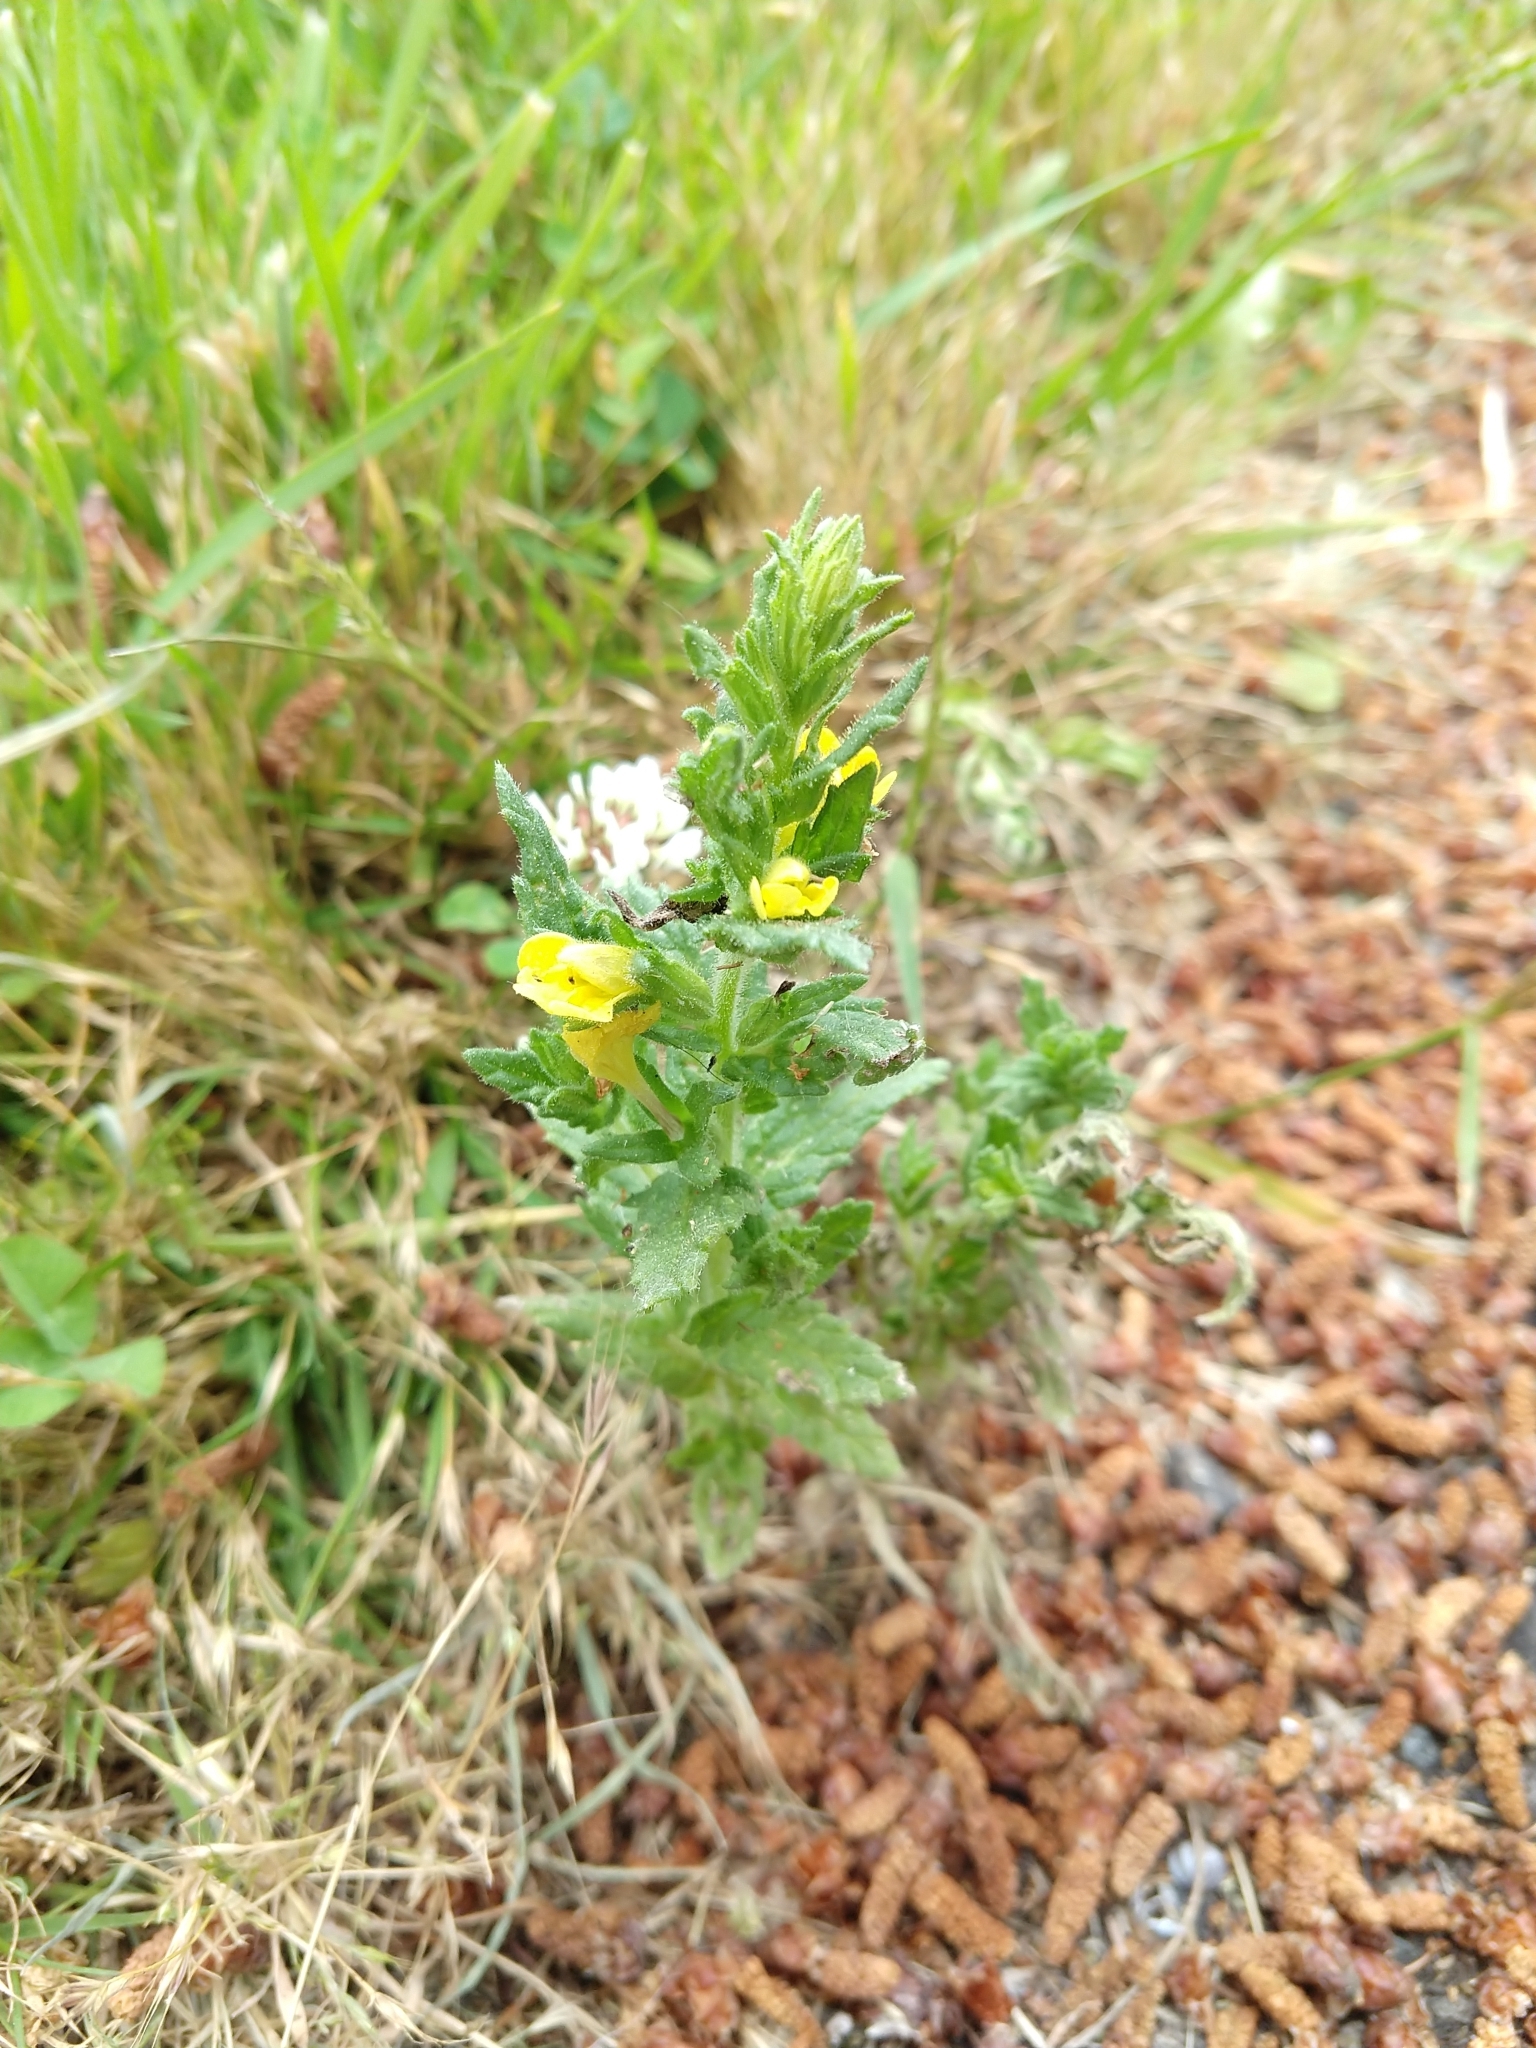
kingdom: Plantae
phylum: Tracheophyta
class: Magnoliopsida
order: Lamiales
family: Orobanchaceae
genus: Bellardia
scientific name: Bellardia viscosa
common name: Sticky parentucellia
